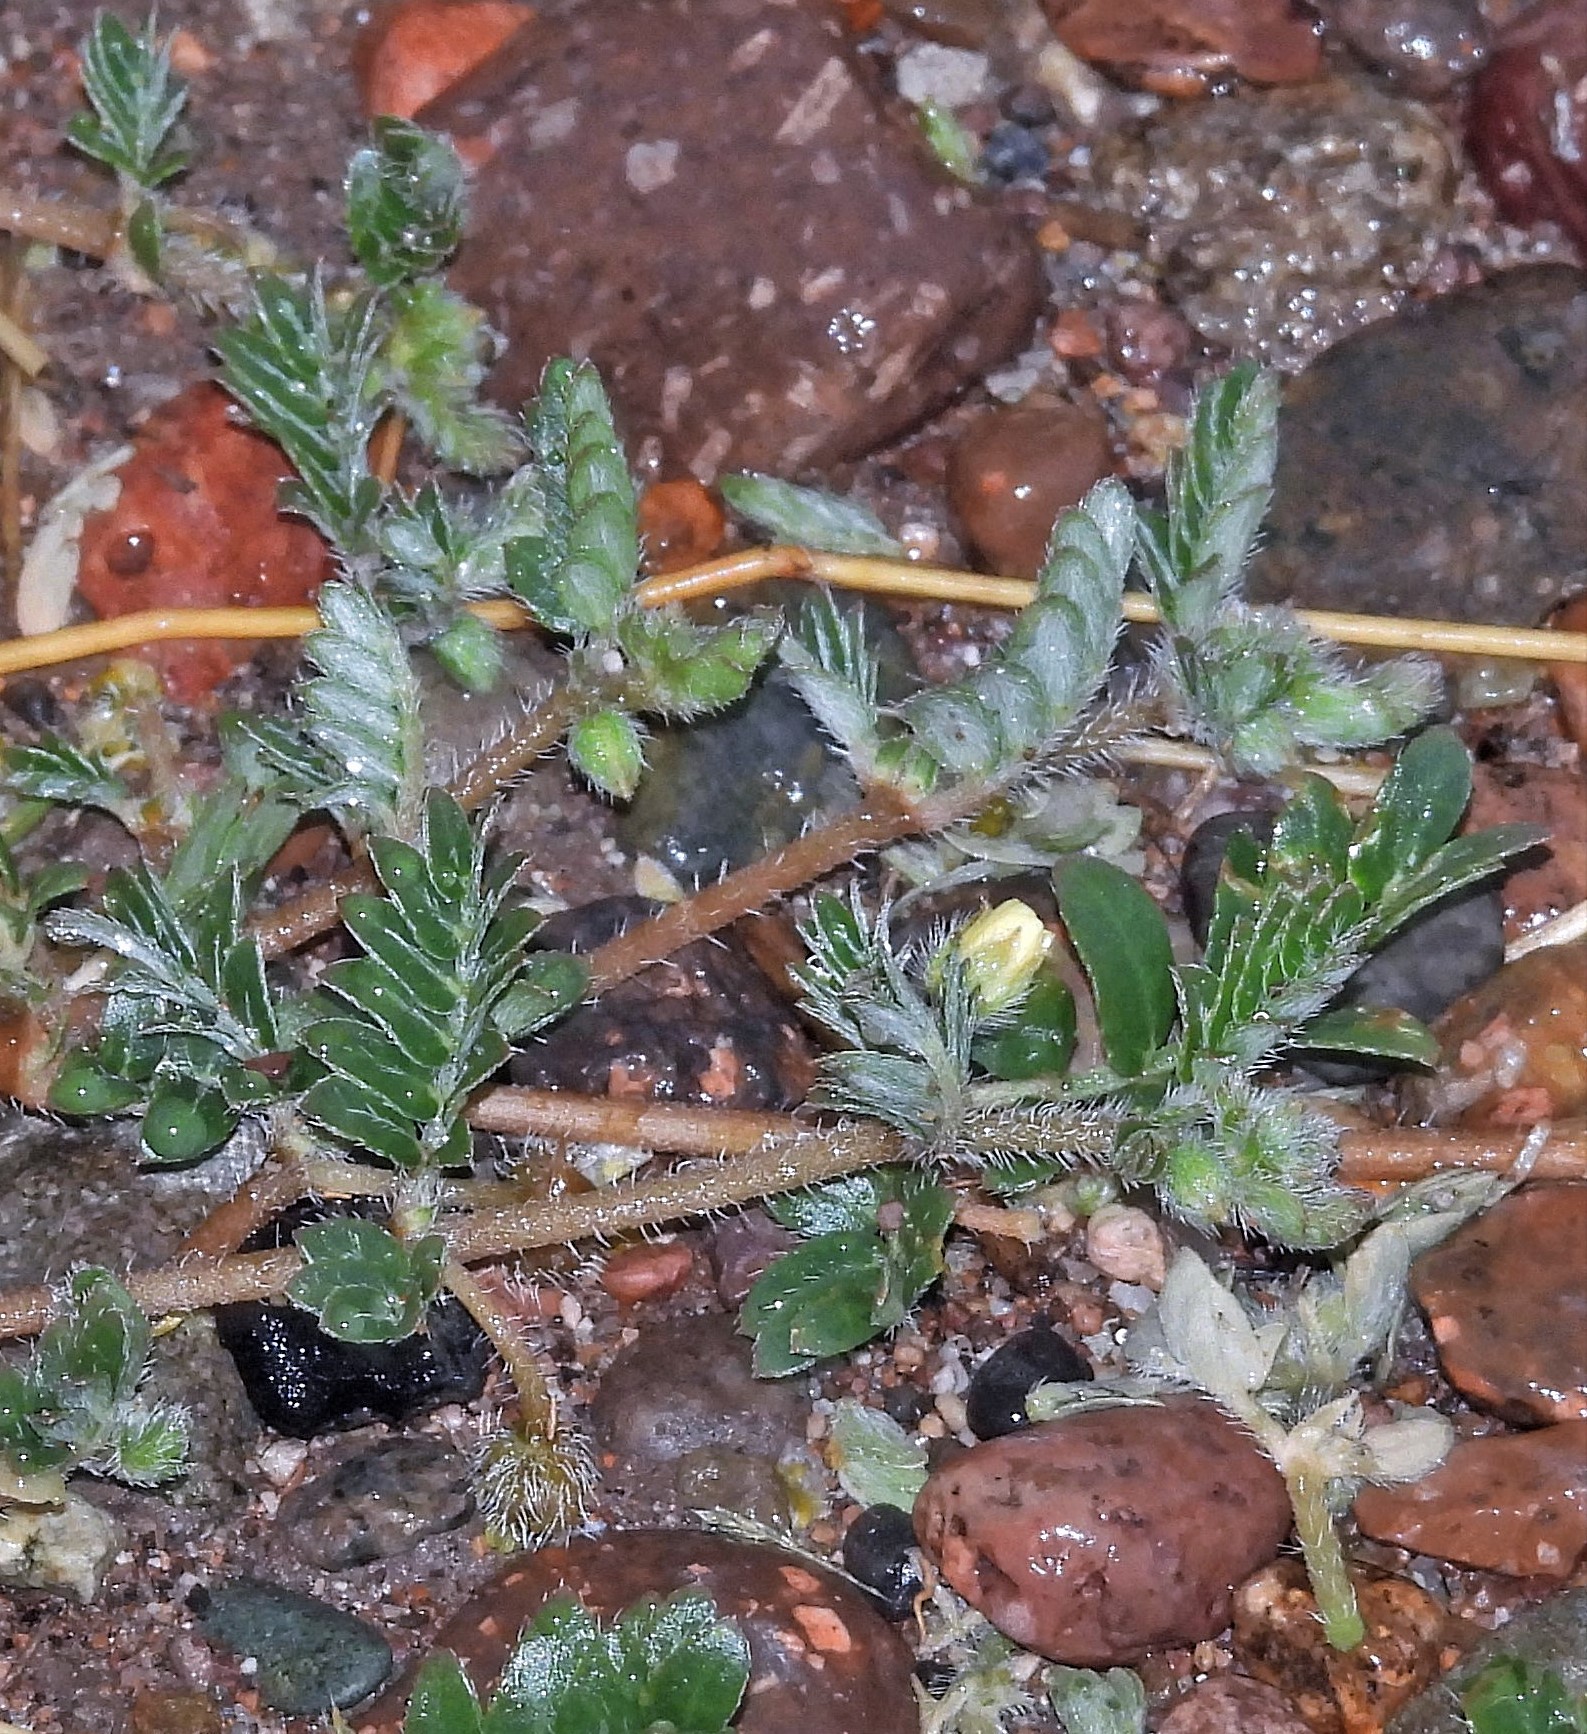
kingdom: Plantae
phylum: Tracheophyta
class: Magnoliopsida
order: Zygophyllales
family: Zygophyllaceae
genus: Tribulus
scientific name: Tribulus terrestris
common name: Puncturevine
